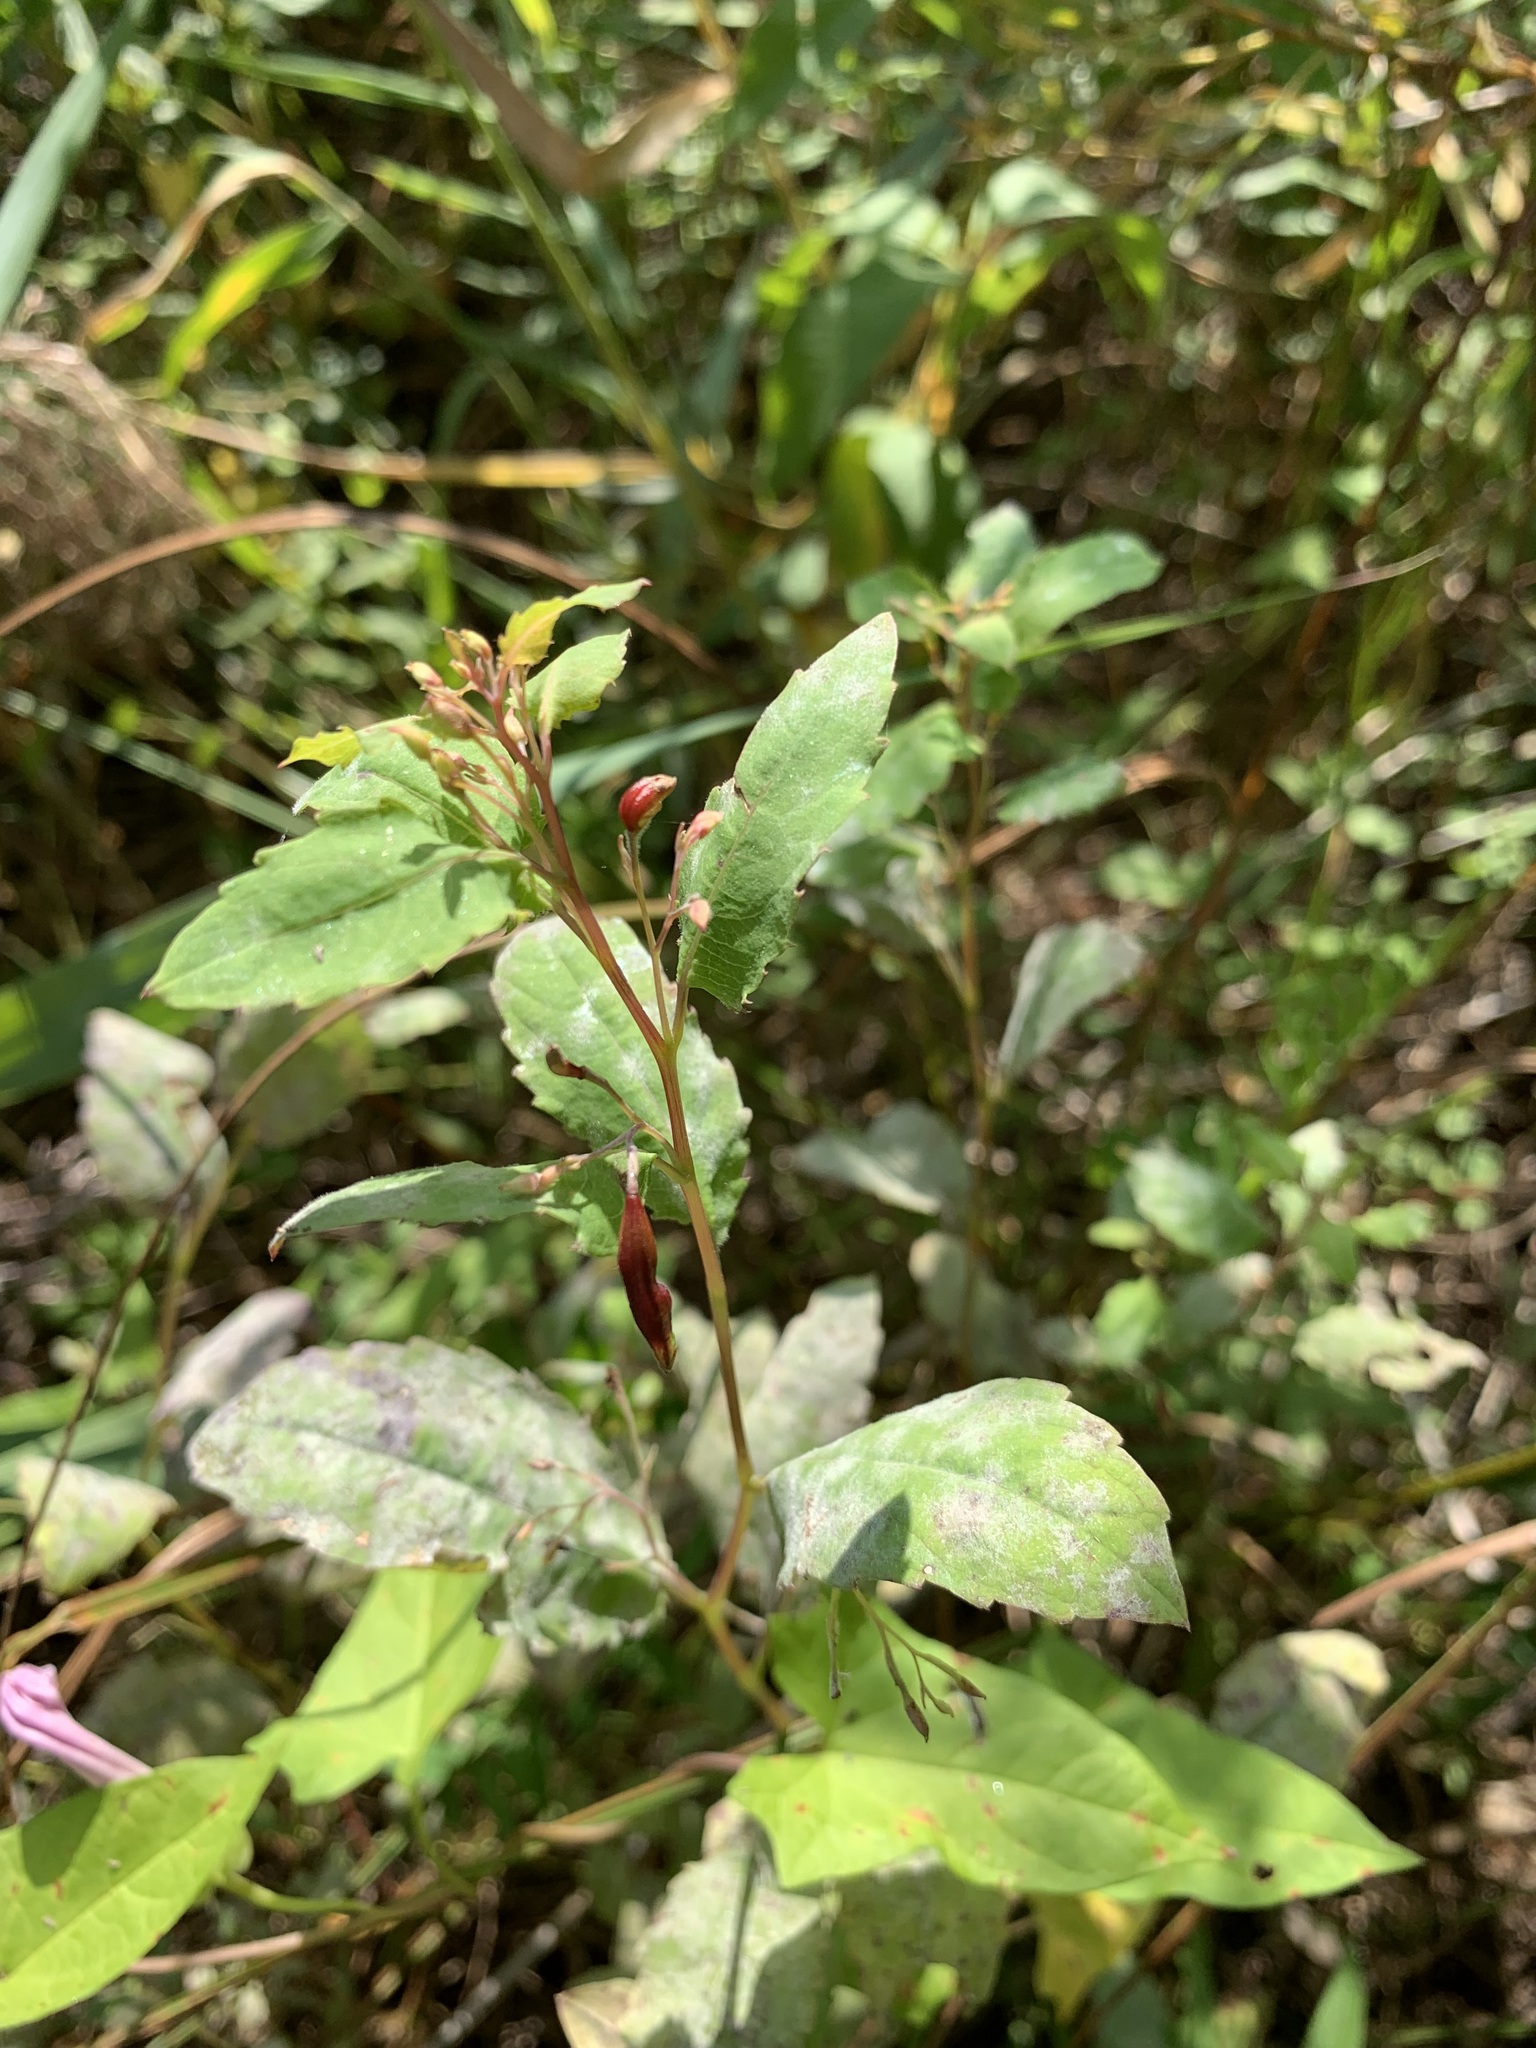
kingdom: Plantae
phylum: Tracheophyta
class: Magnoliopsida
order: Ericales
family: Balsaminaceae
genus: Impatiens
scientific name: Impatiens noli-tangere
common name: Touch-me-not balsam
